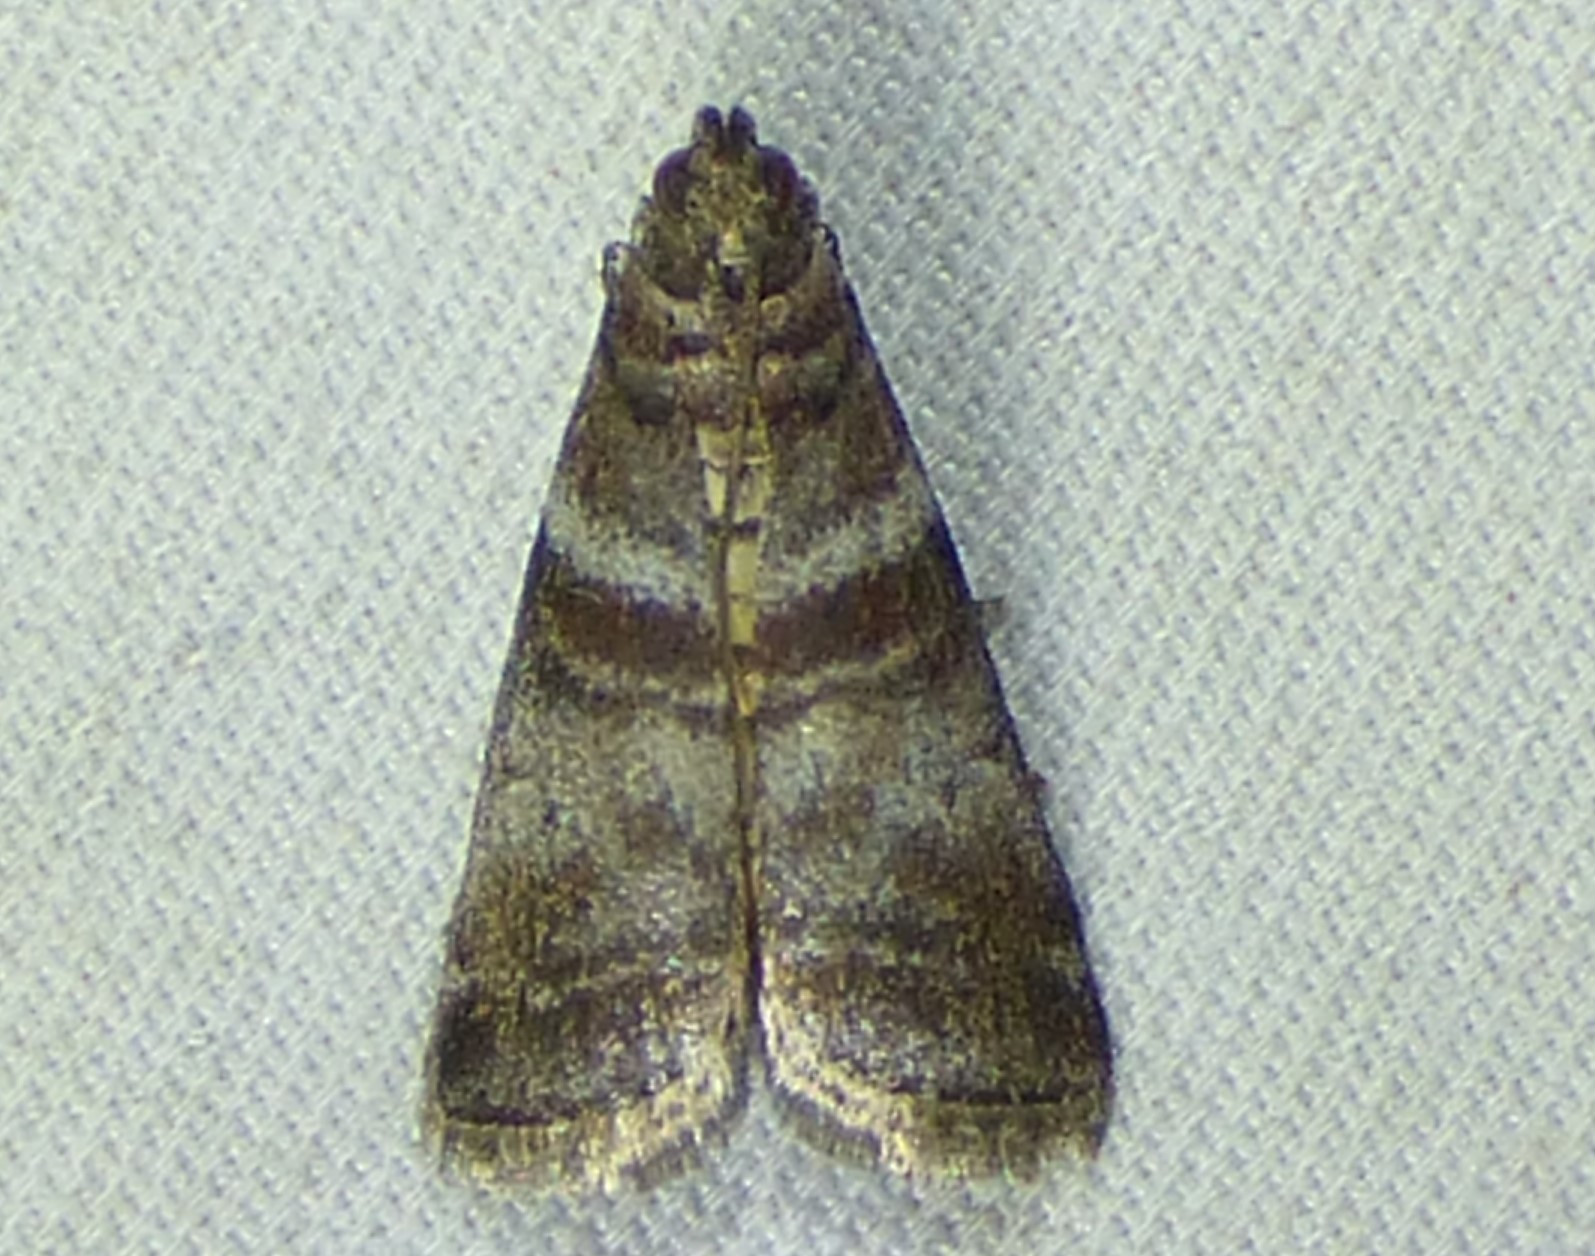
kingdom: Animalia
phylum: Arthropoda
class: Insecta
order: Lepidoptera
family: Pyralidae
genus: Sciota
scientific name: Sciota uvinella
